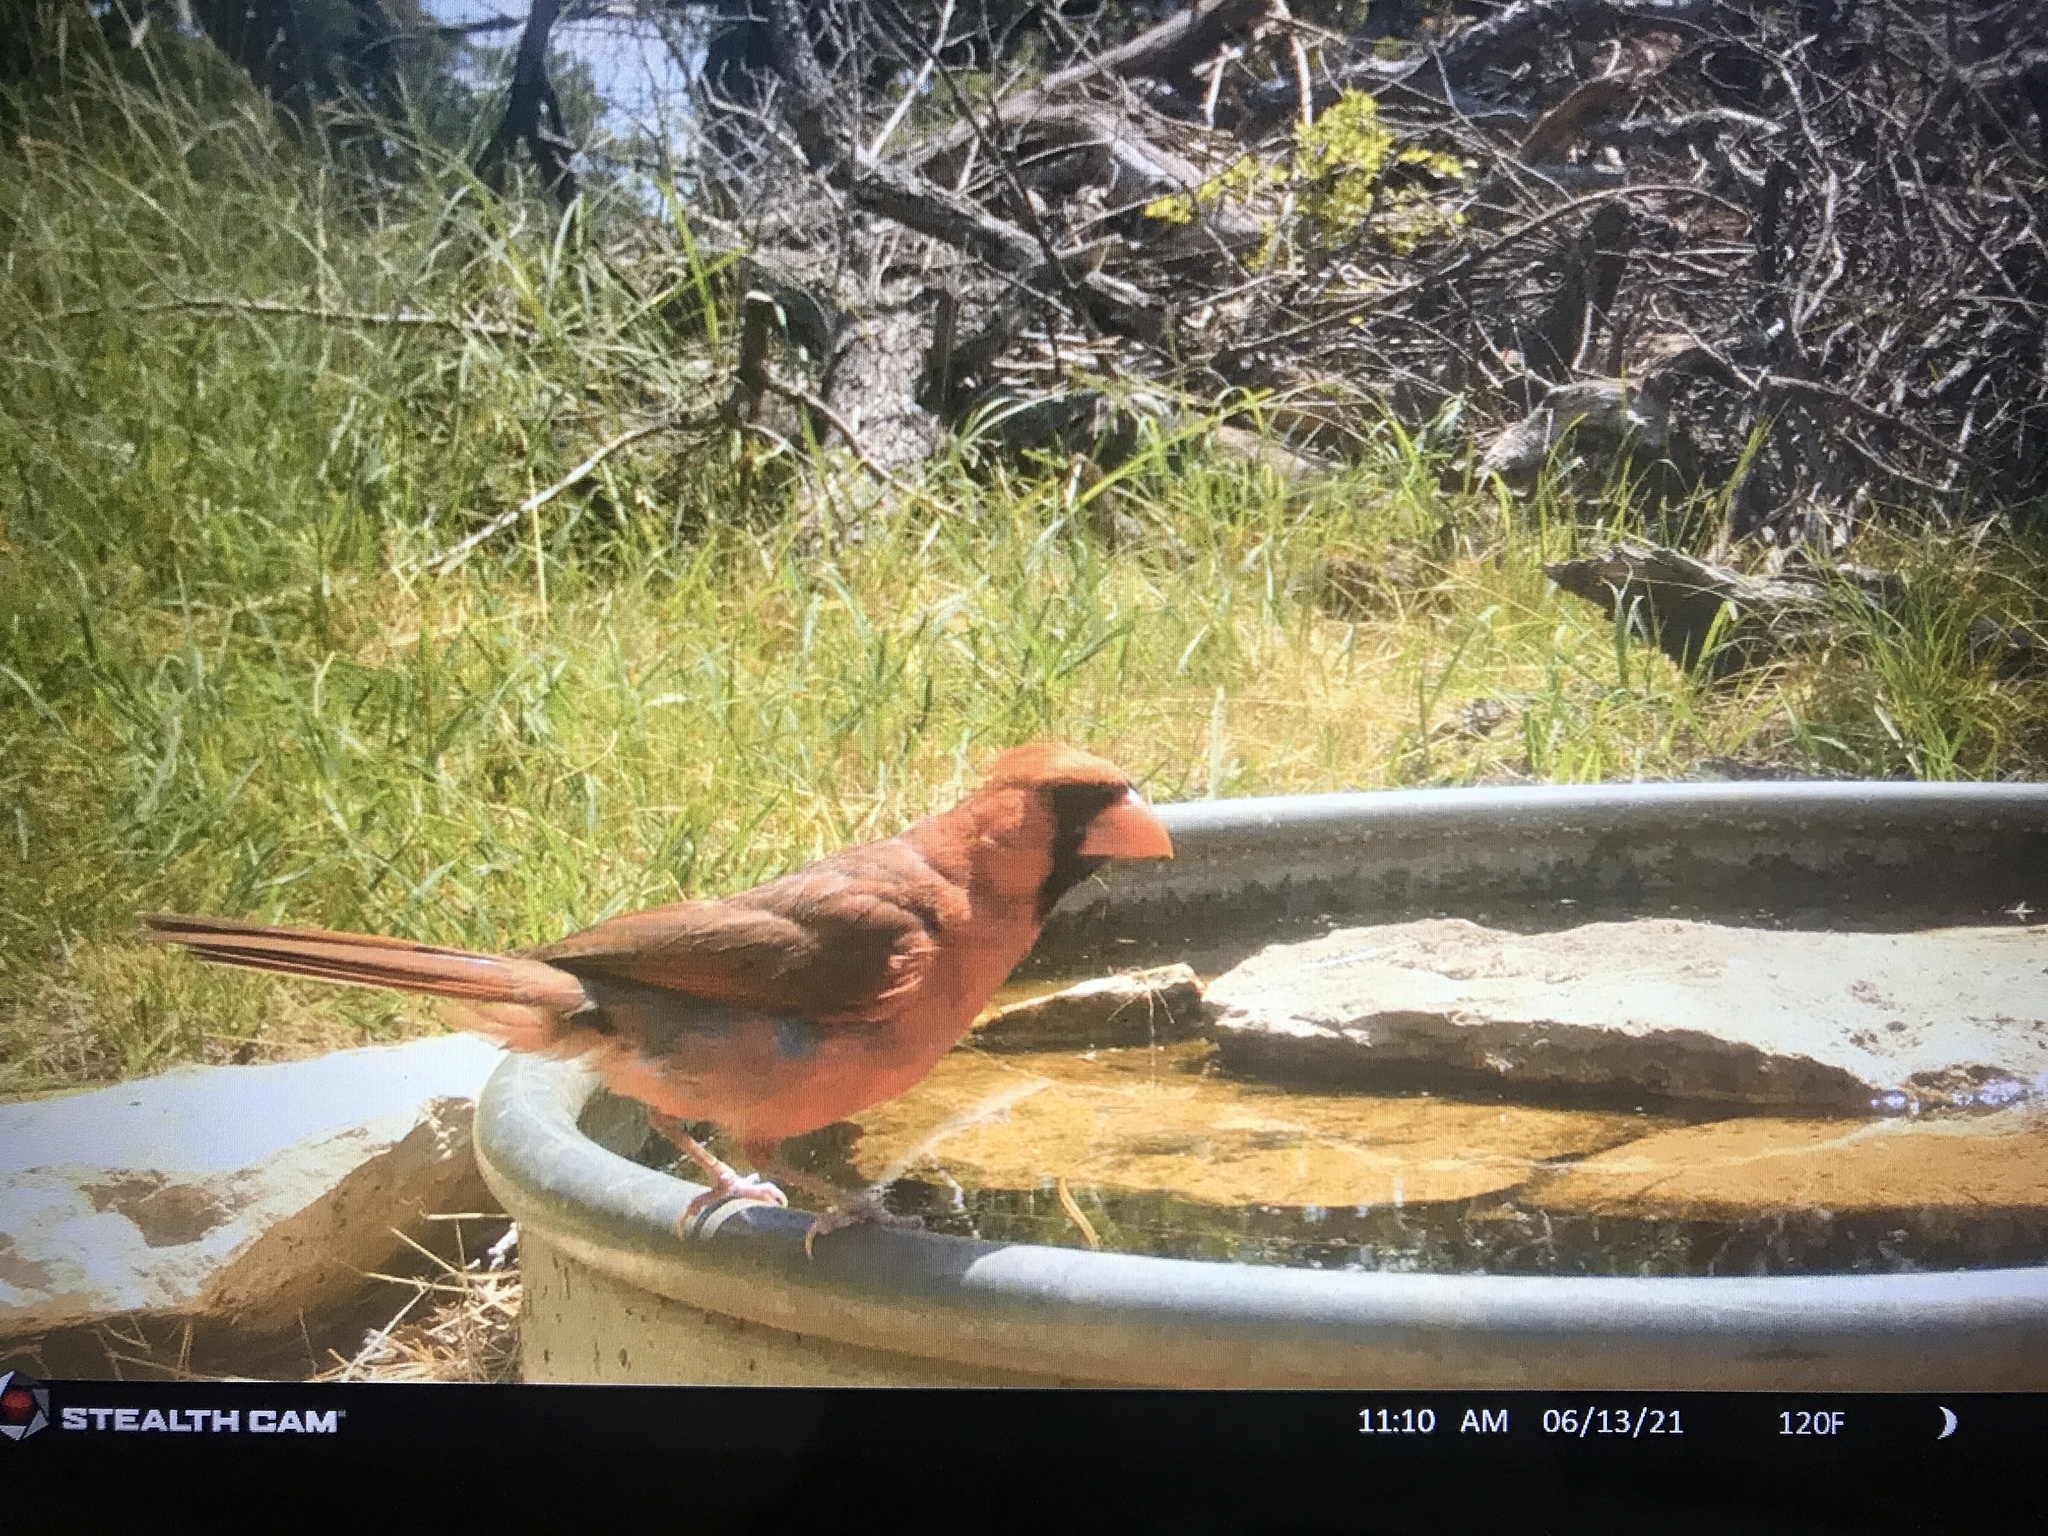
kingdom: Animalia
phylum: Chordata
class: Aves
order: Passeriformes
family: Cardinalidae
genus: Cardinalis
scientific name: Cardinalis cardinalis
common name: Northern cardinal
